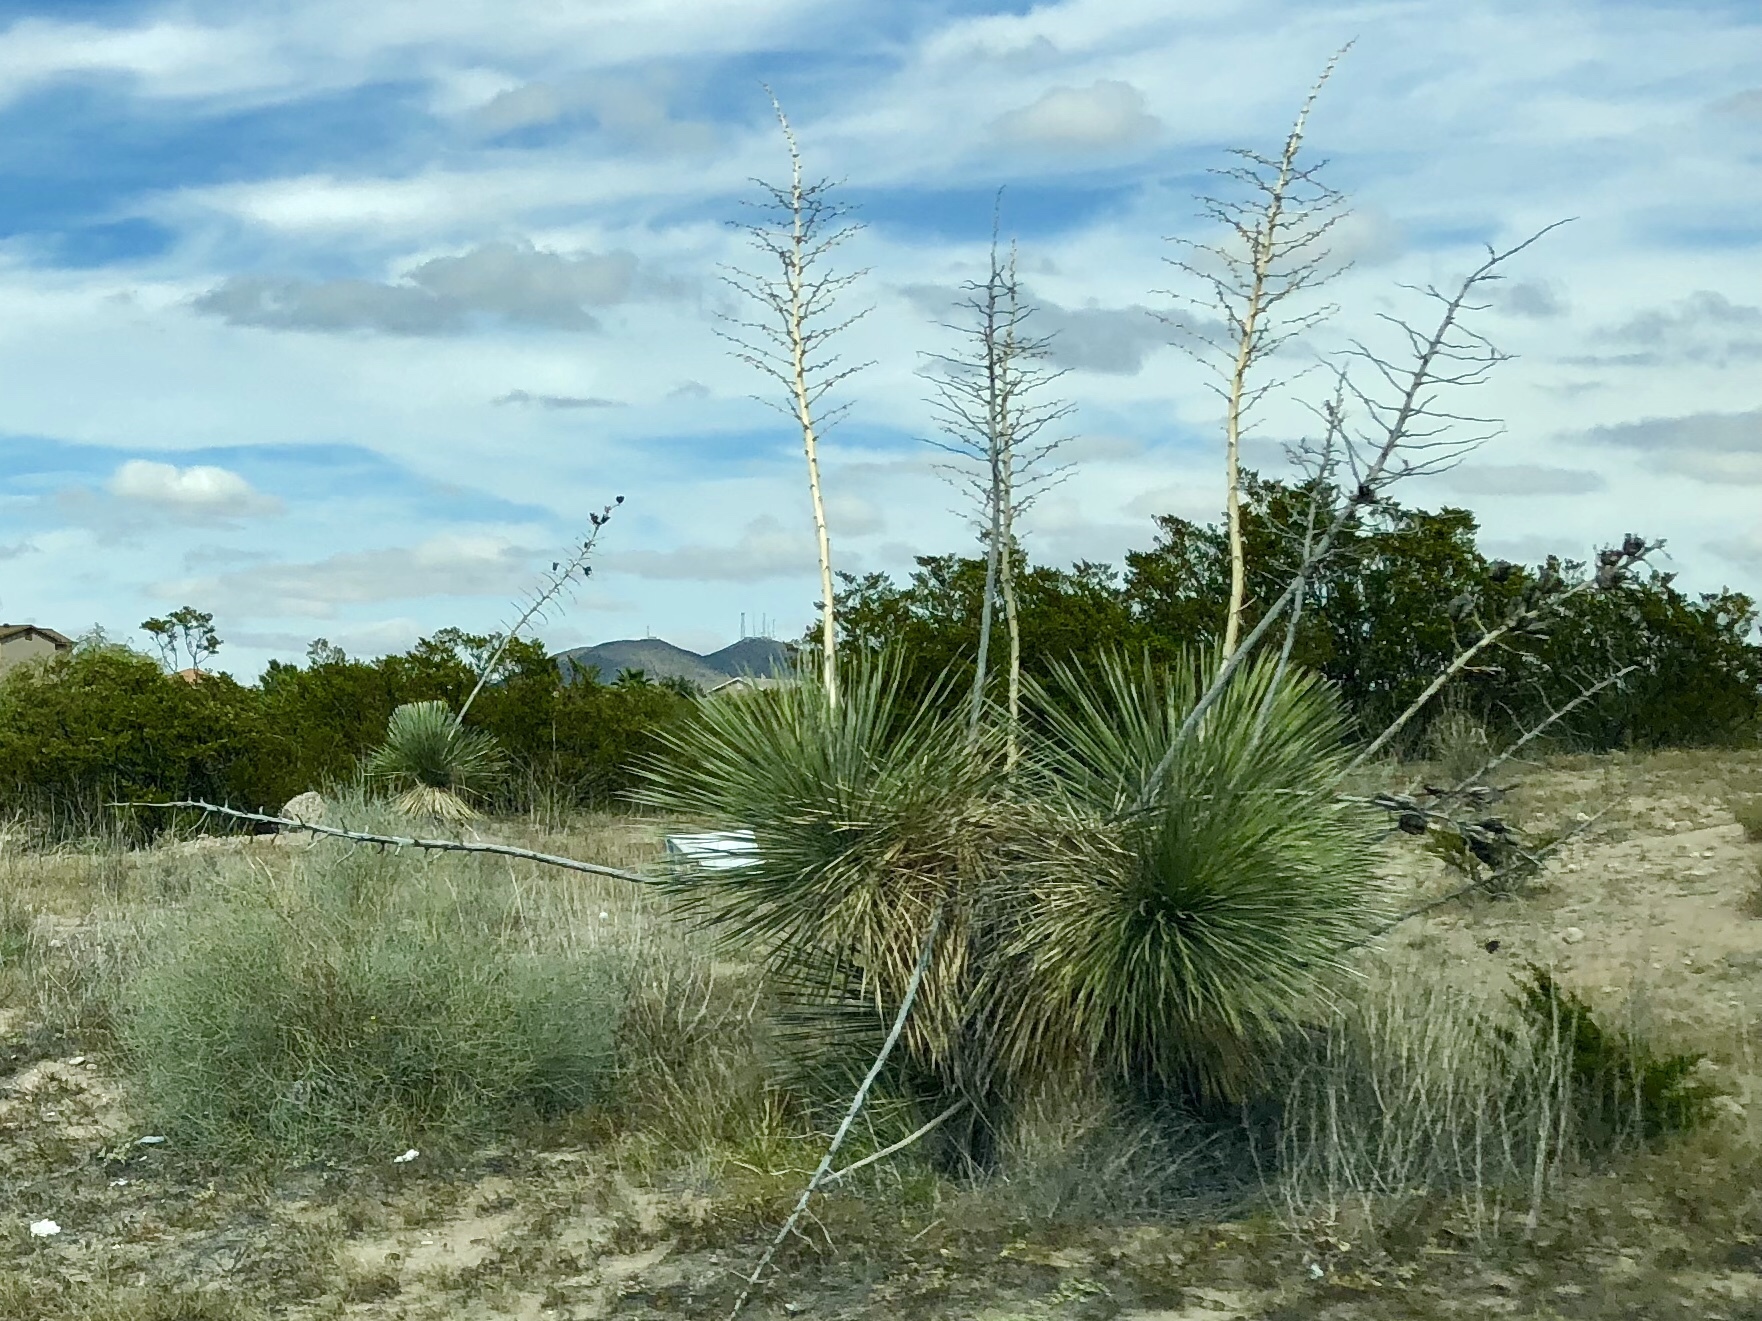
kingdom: Plantae
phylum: Tracheophyta
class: Liliopsida
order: Asparagales
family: Asparagaceae
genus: Yucca
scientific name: Yucca elata
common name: Palmella
